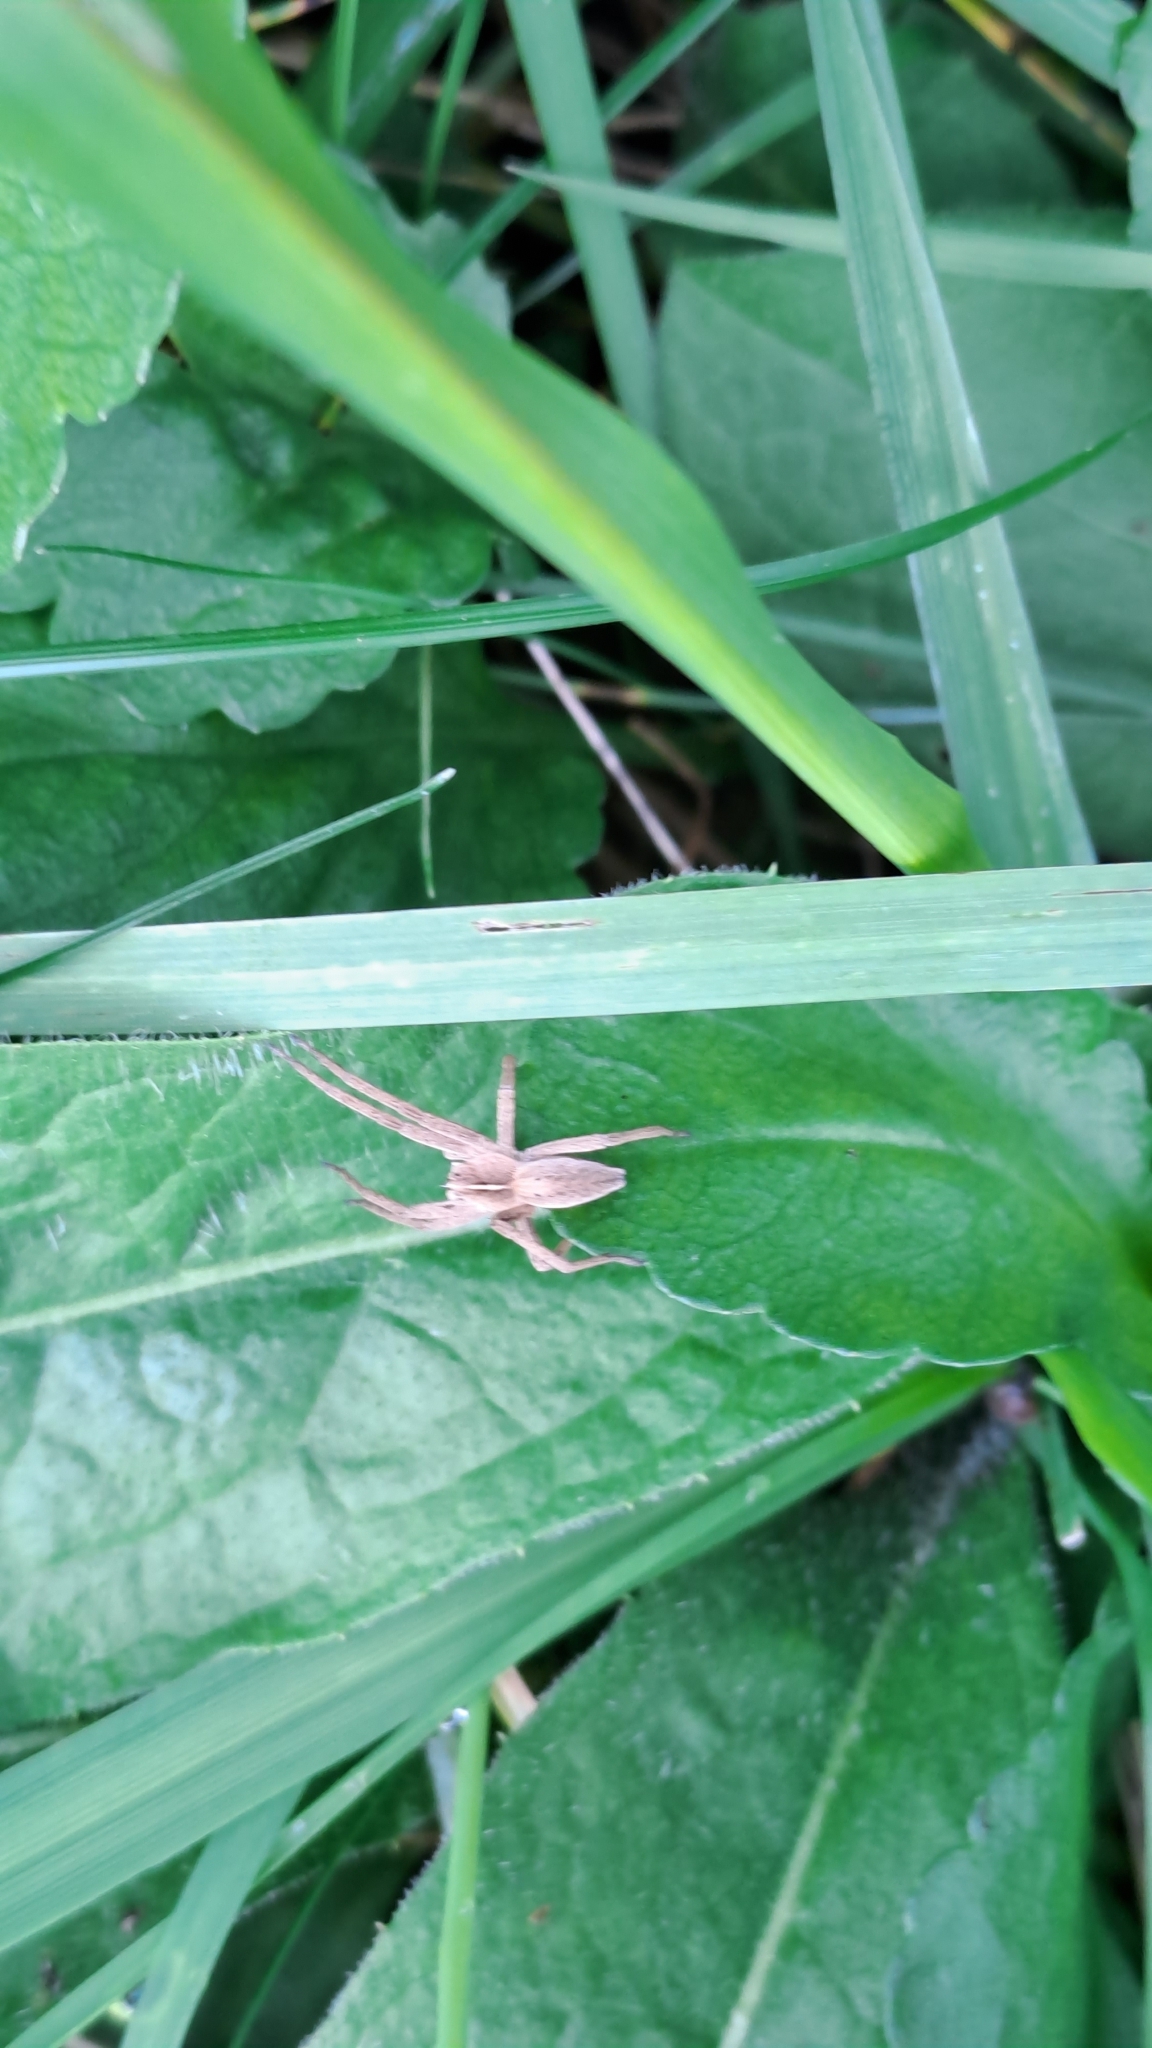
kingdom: Animalia
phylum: Arthropoda
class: Arachnida
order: Araneae
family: Pisauridae
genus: Pisaura
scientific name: Pisaura mirabilis
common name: Tent spider
